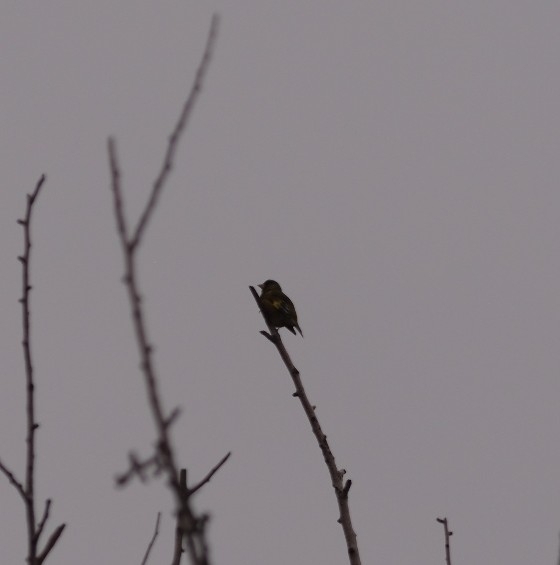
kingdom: Plantae
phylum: Tracheophyta
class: Liliopsida
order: Poales
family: Poaceae
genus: Chloris
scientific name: Chloris sinica
